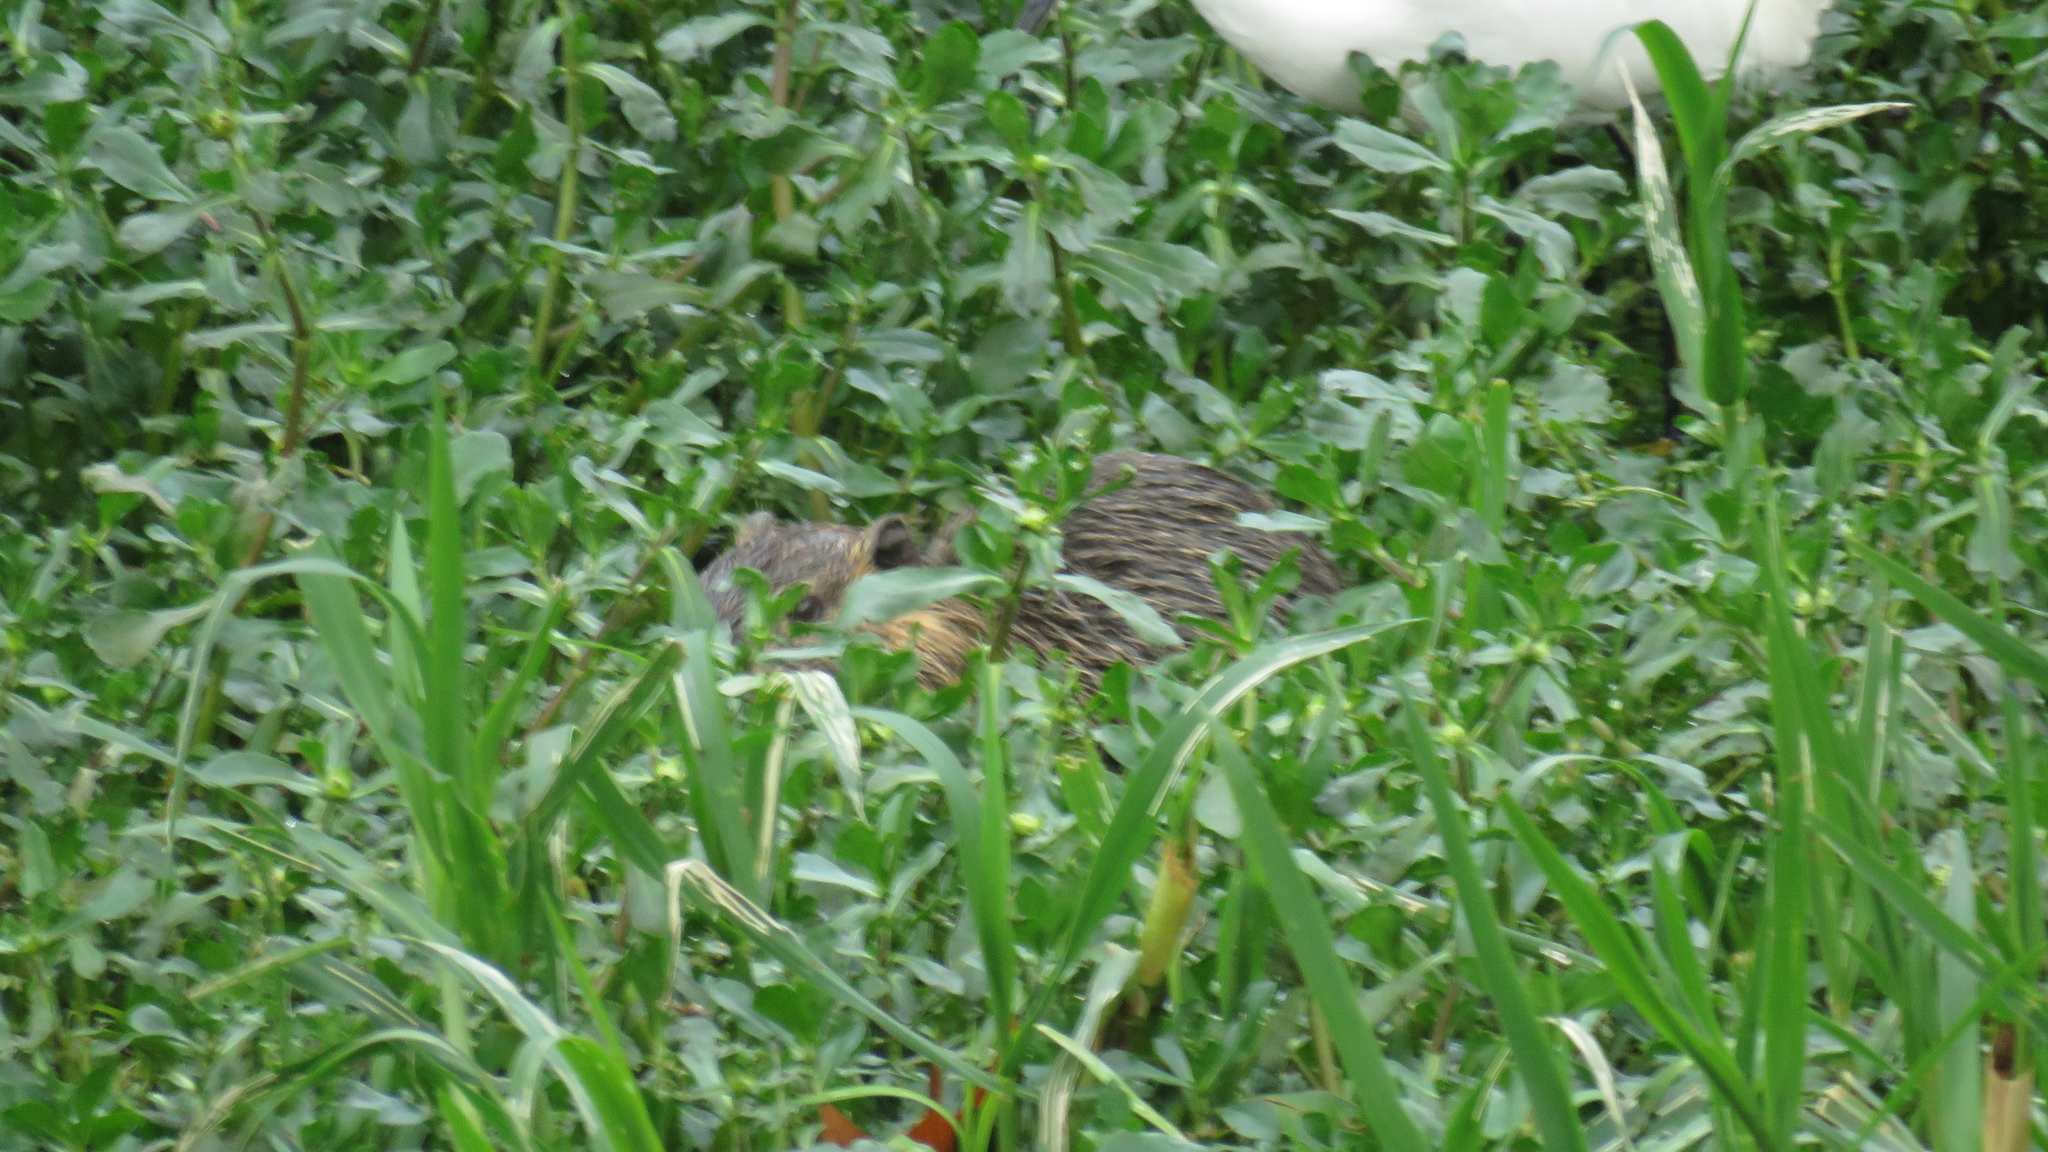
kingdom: Animalia
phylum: Chordata
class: Mammalia
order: Rodentia
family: Myocastoridae
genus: Myocastor
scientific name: Myocastor coypus
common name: Coypu
